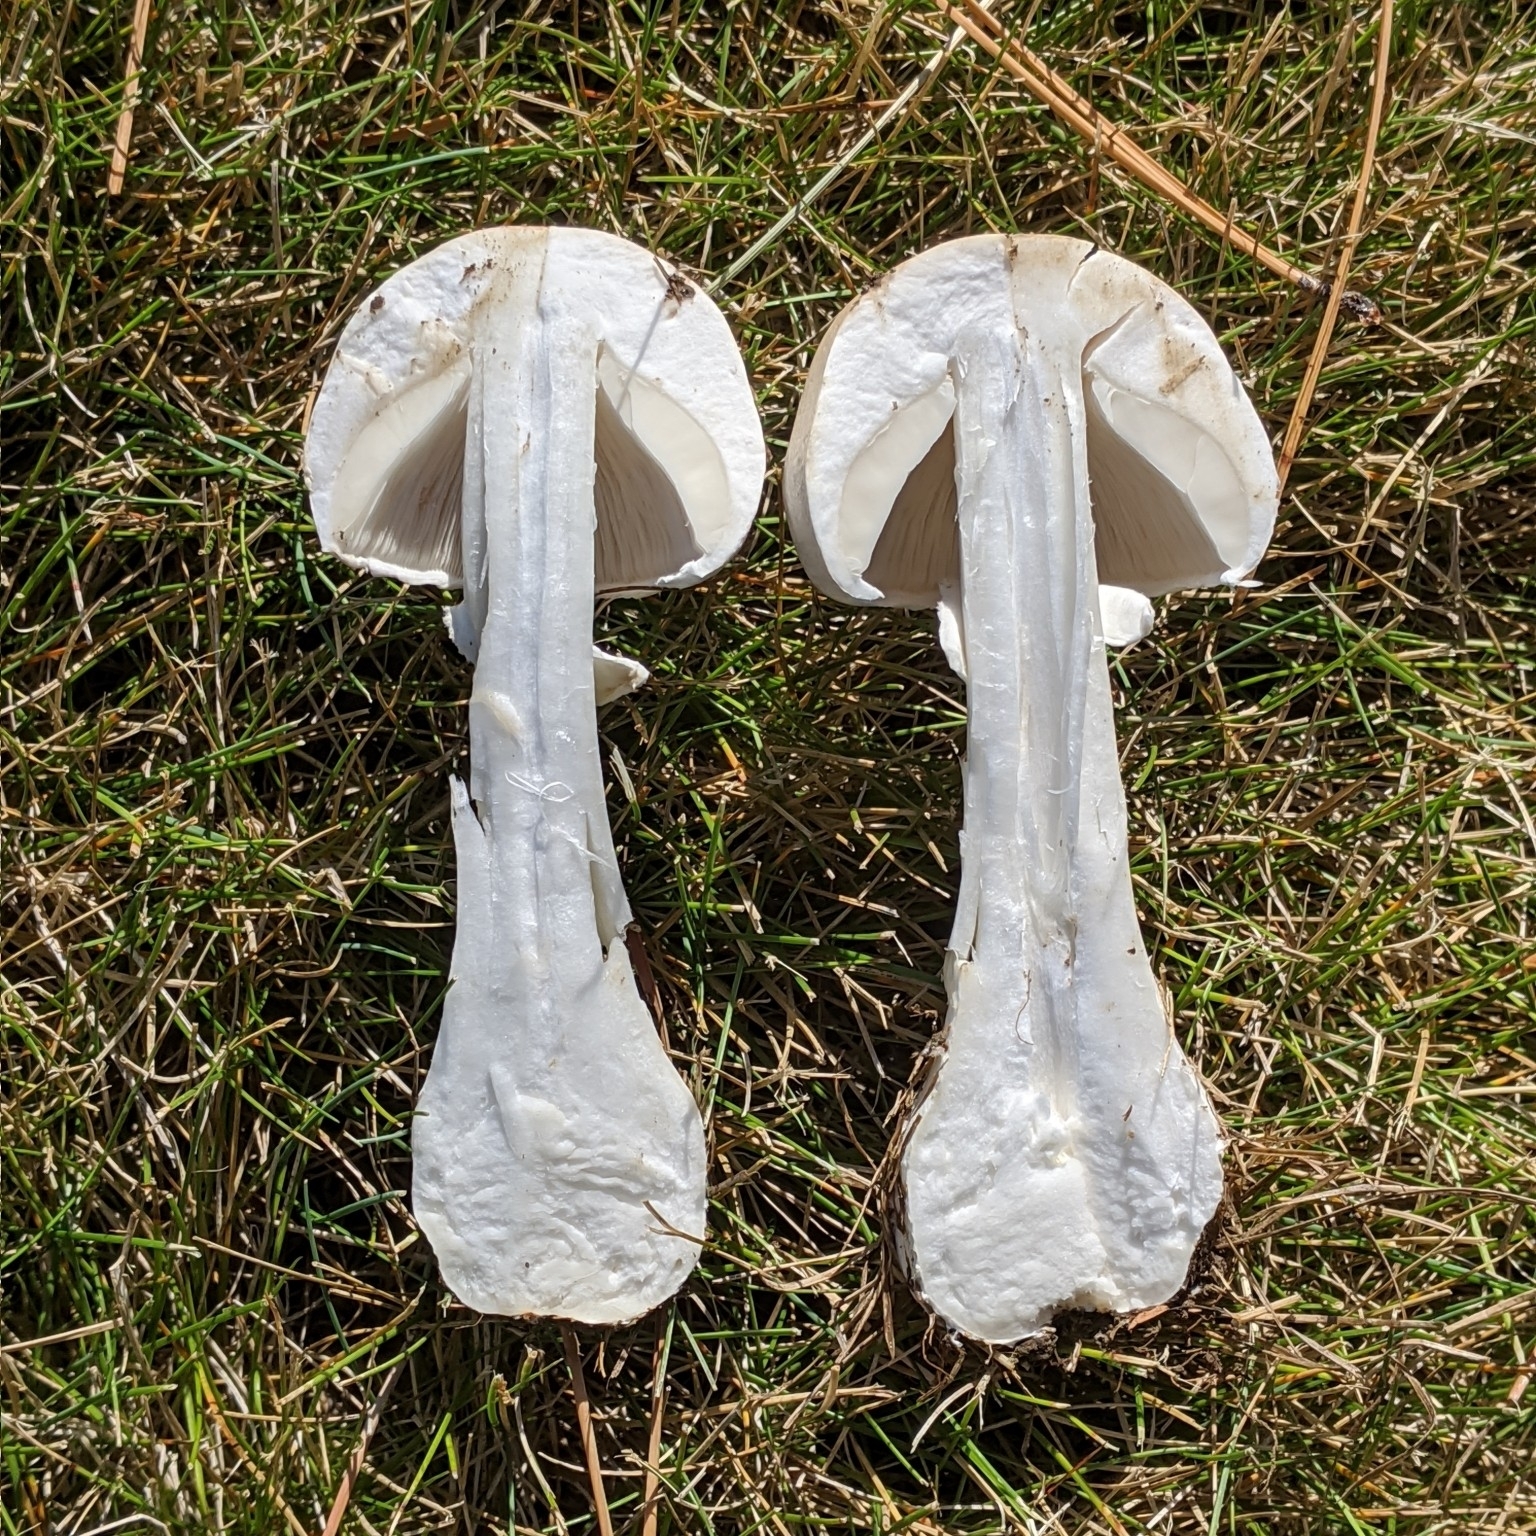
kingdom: Fungi
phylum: Basidiomycota
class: Agaricomycetes
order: Agaricales
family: Agaricaceae
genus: Leucoagaricus
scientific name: Leucoagaricus leucothites
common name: White dapperling
